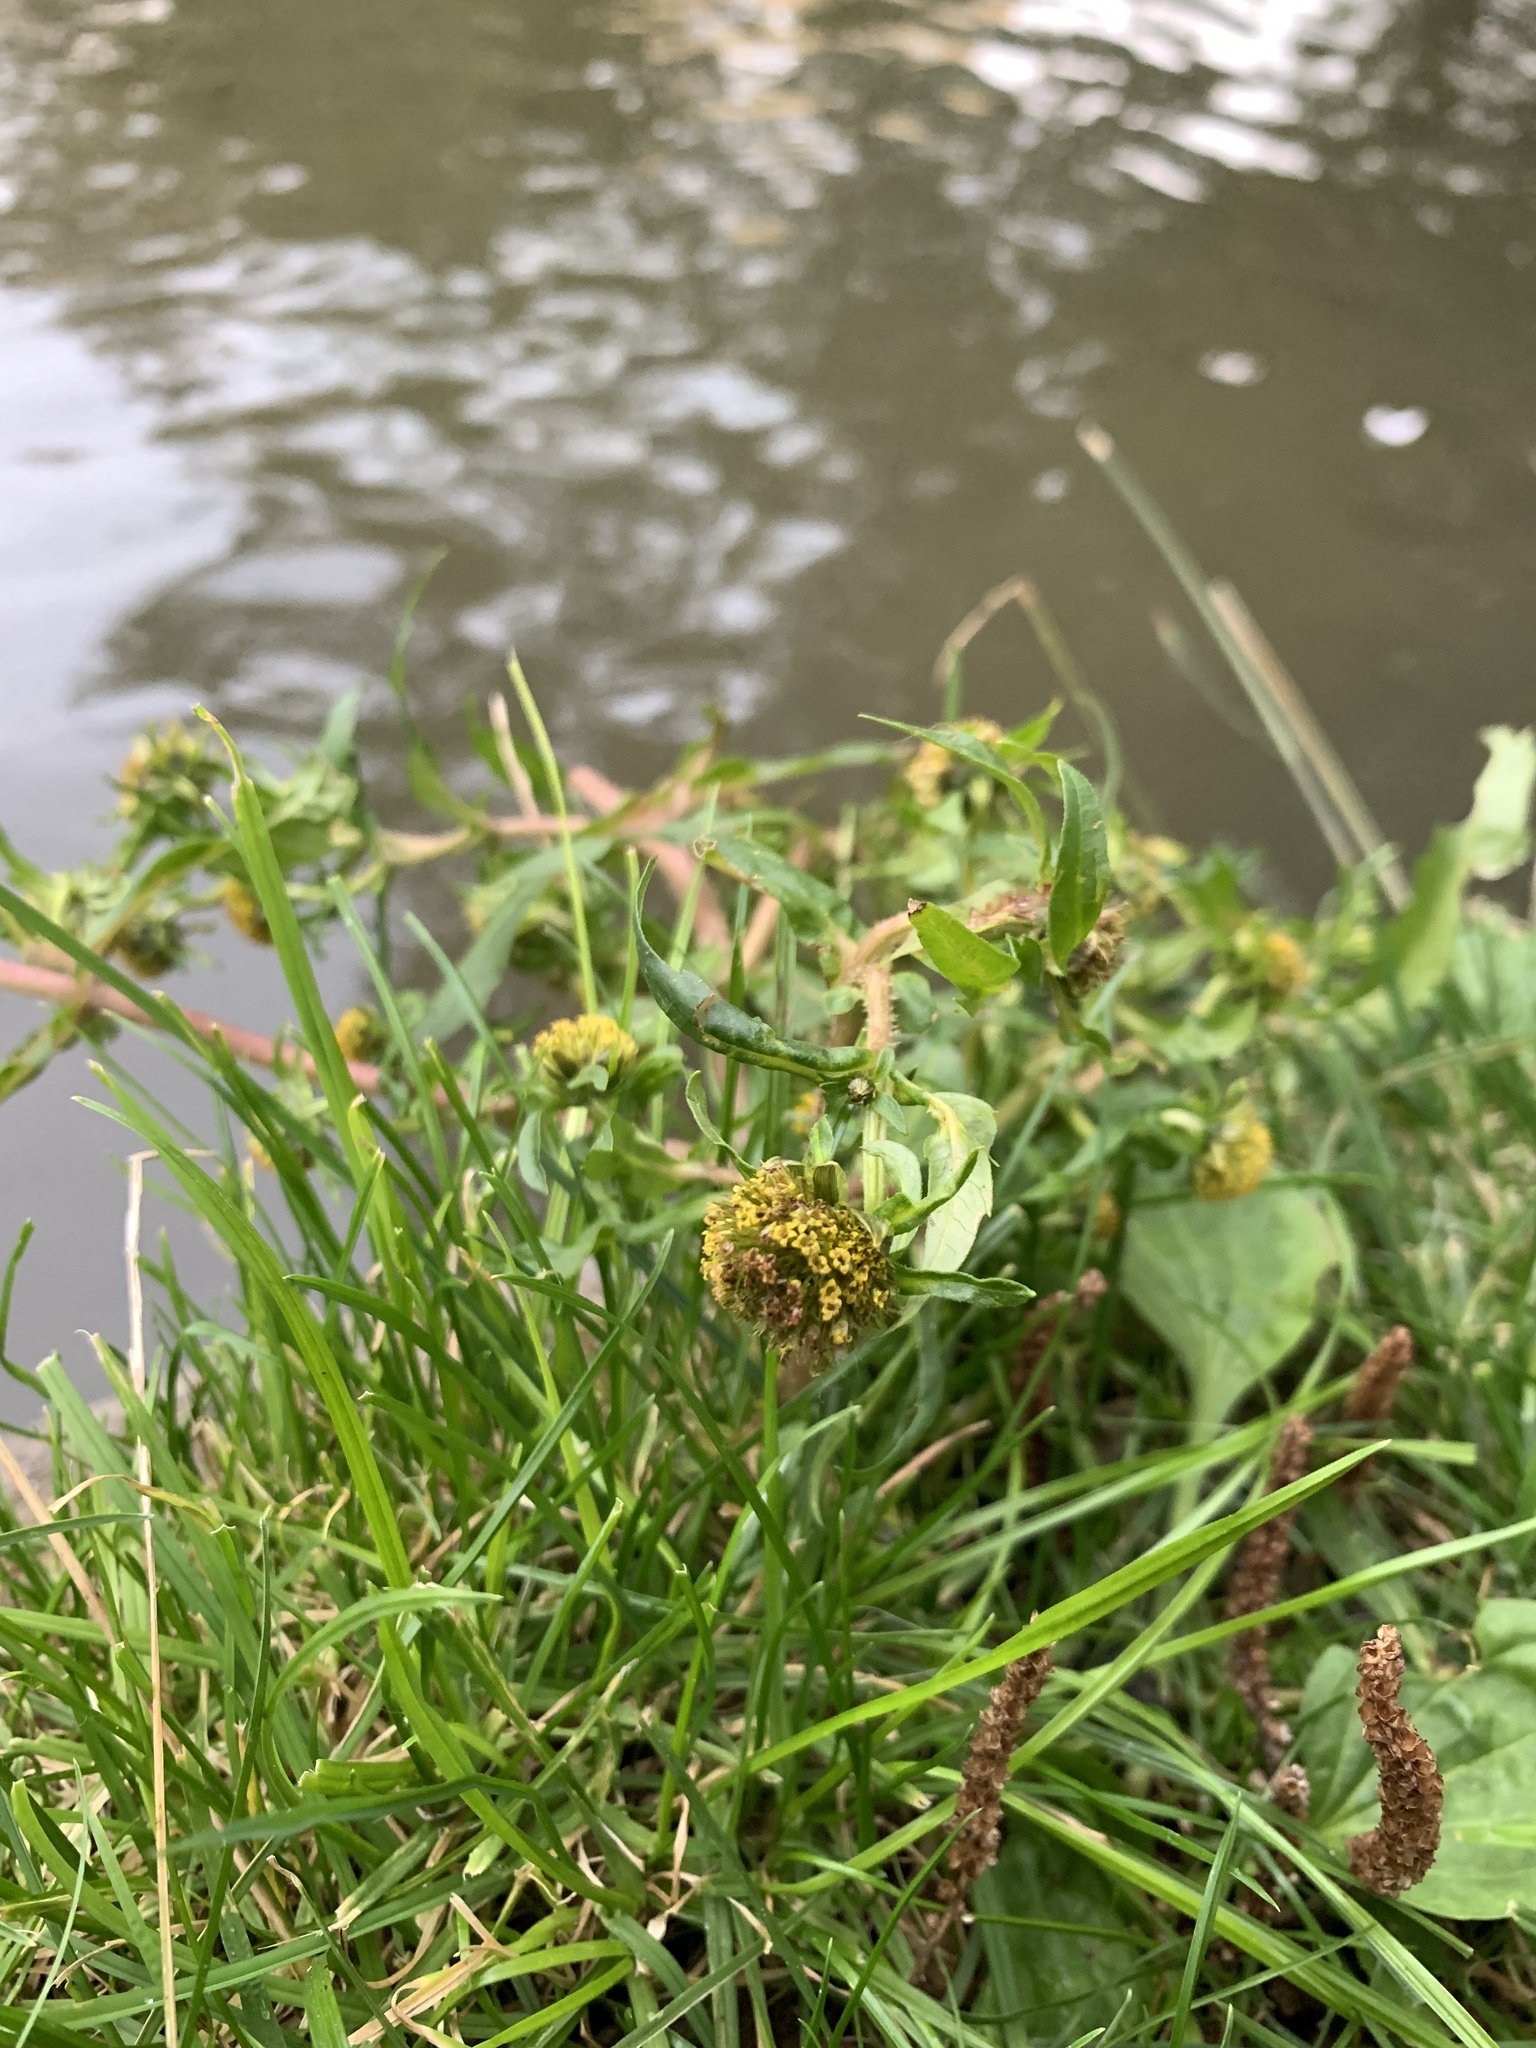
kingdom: Plantae
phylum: Tracheophyta
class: Magnoliopsida
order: Asterales
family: Asteraceae
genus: Bidens
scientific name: Bidens cernua
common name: Nodding bur-marigold
